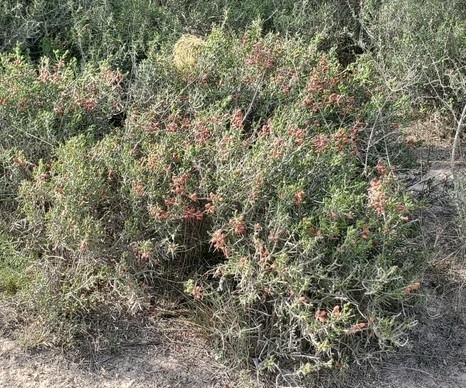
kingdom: Plantae
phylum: Tracheophyta
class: Magnoliopsida
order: Caryophyllales
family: Cactaceae
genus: Cylindropuntia
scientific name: Cylindropuntia leptocaulis
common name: Christmas cactus
